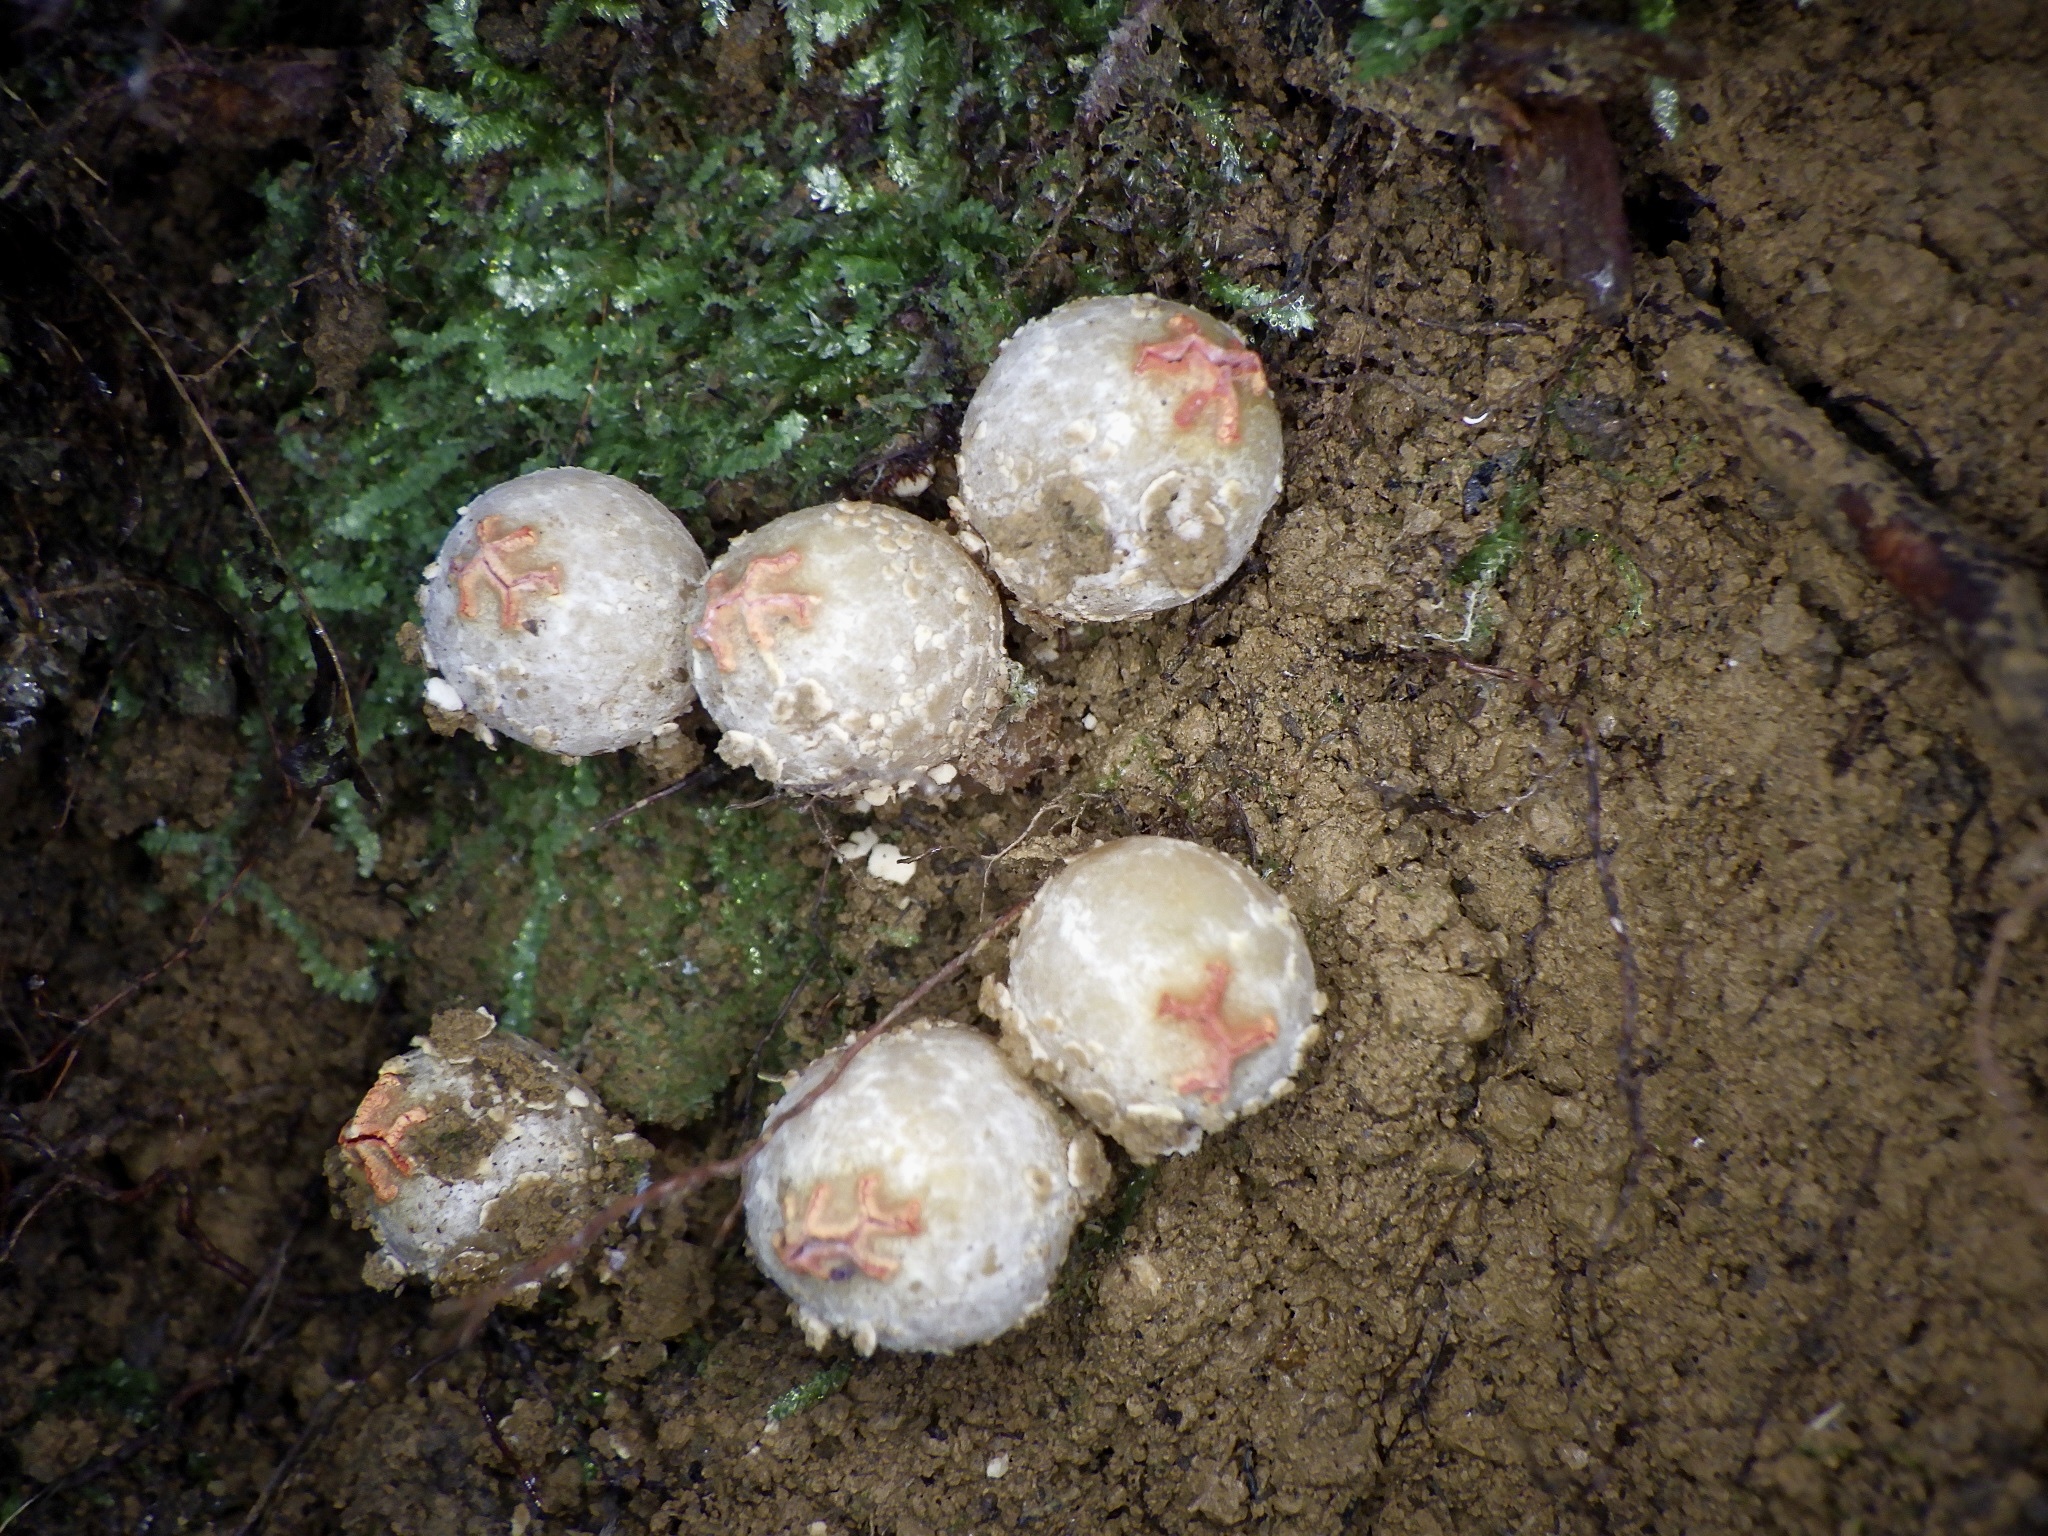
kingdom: Fungi
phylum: Basidiomycota
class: Agaricomycetes
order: Boletales
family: Calostomataceae
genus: Calostoma
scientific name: Calostoma japonicum
